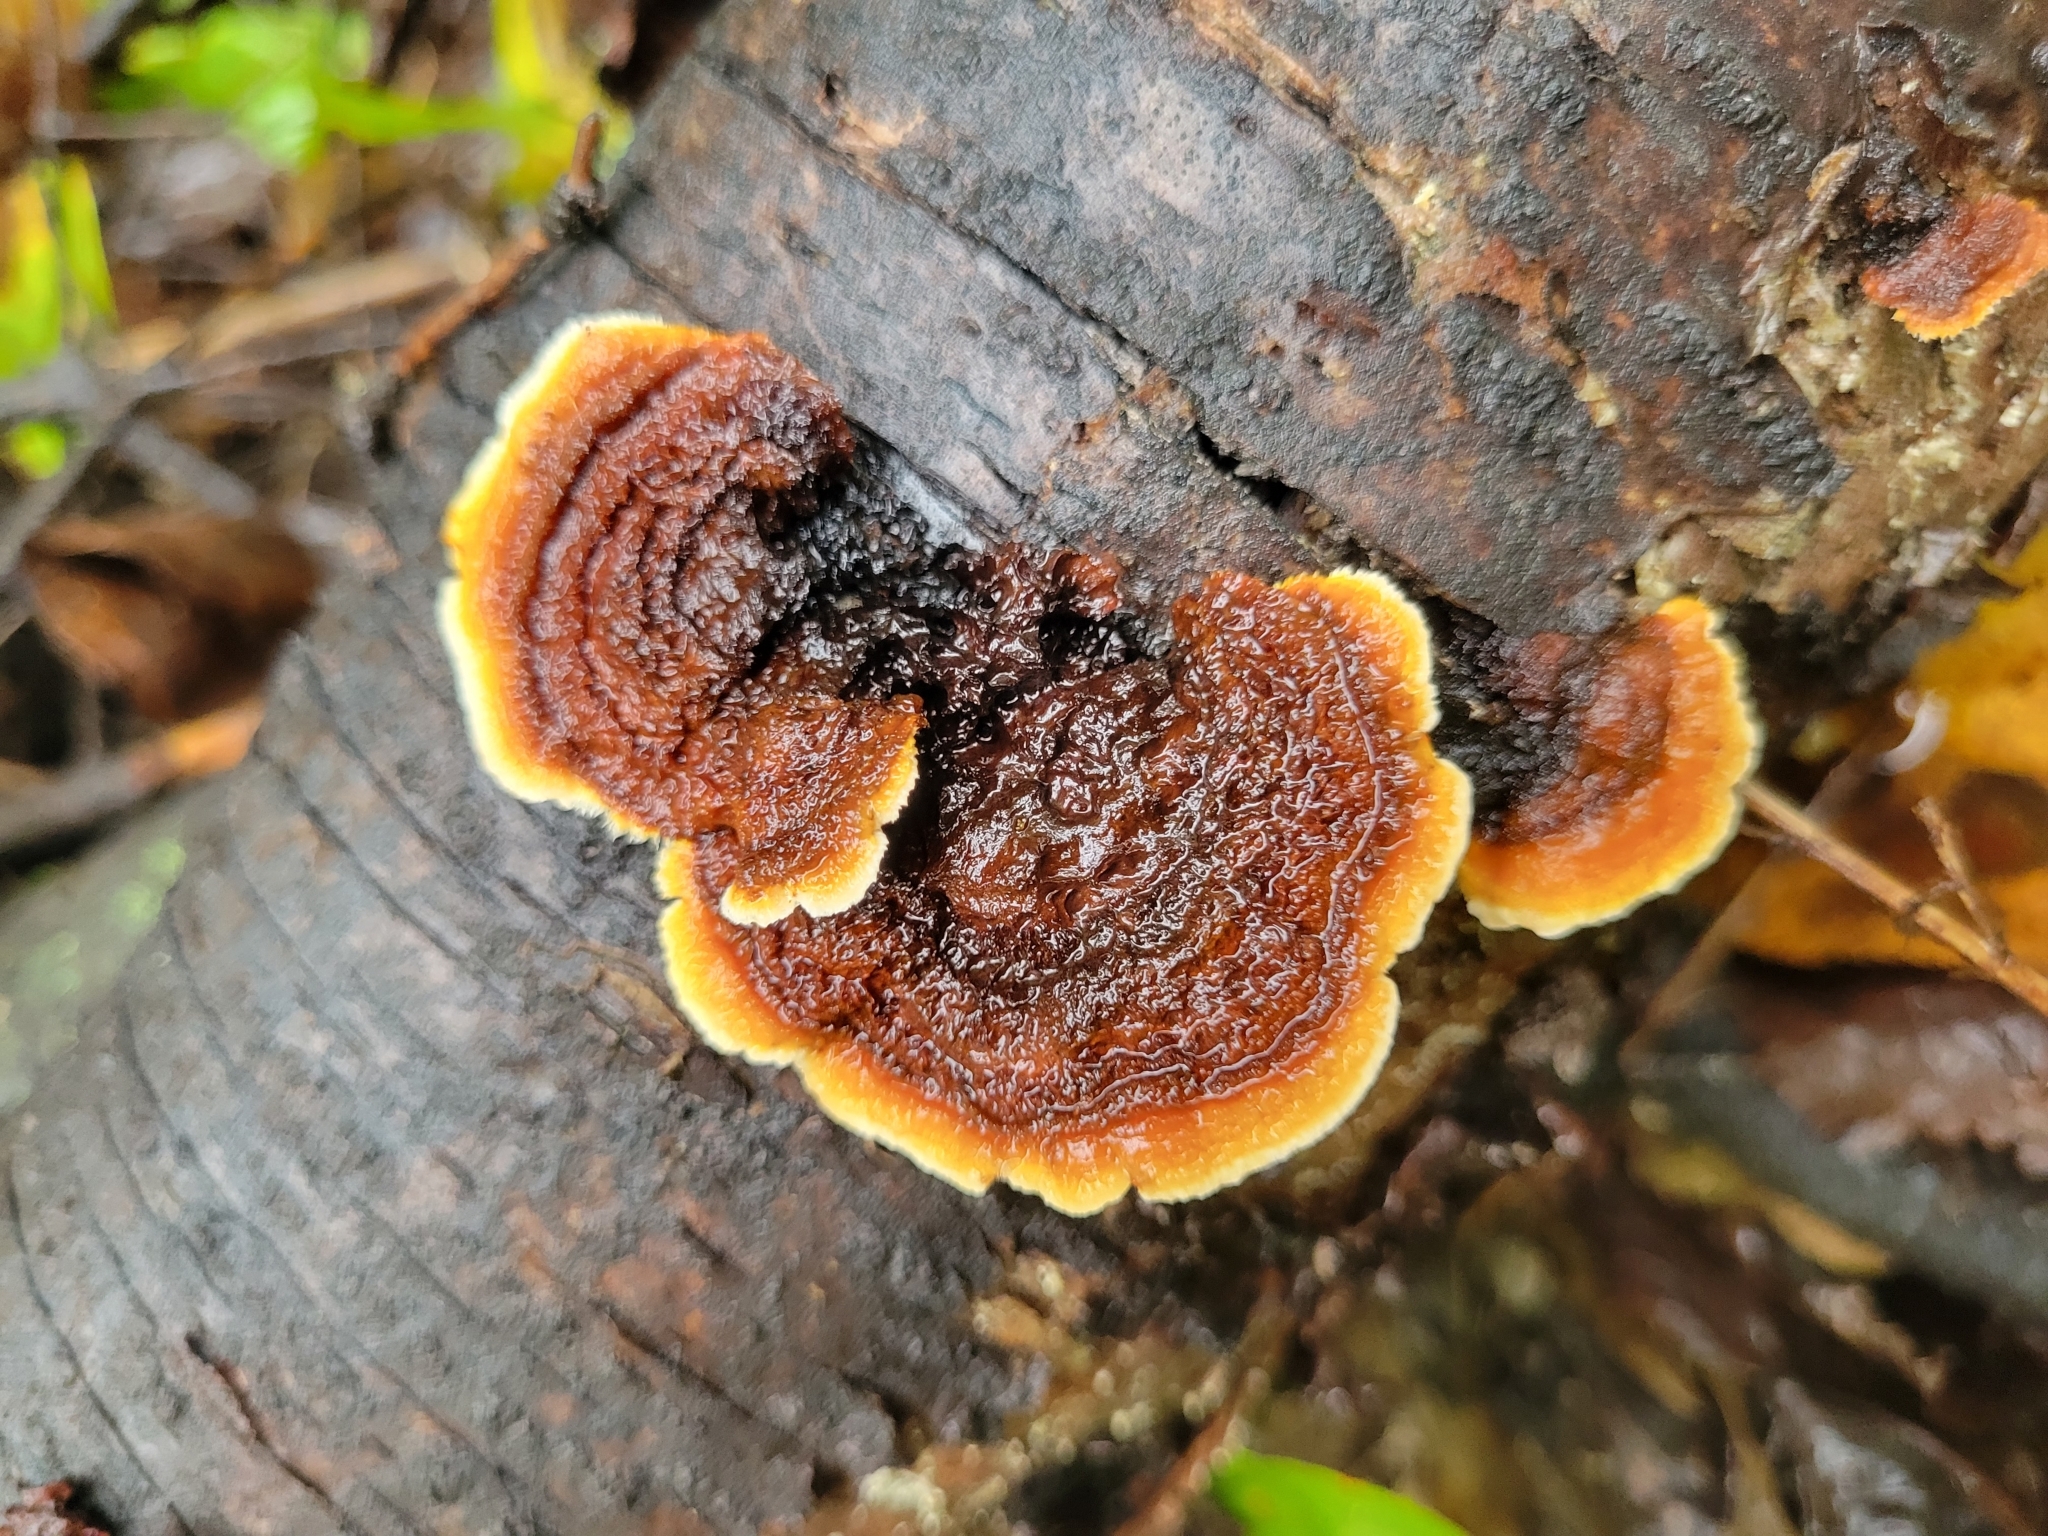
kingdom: Fungi
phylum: Basidiomycota
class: Agaricomycetes
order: Gloeophyllales
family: Gloeophyllaceae
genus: Gloeophyllum
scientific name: Gloeophyllum sepiarium
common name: Conifer mazegill
